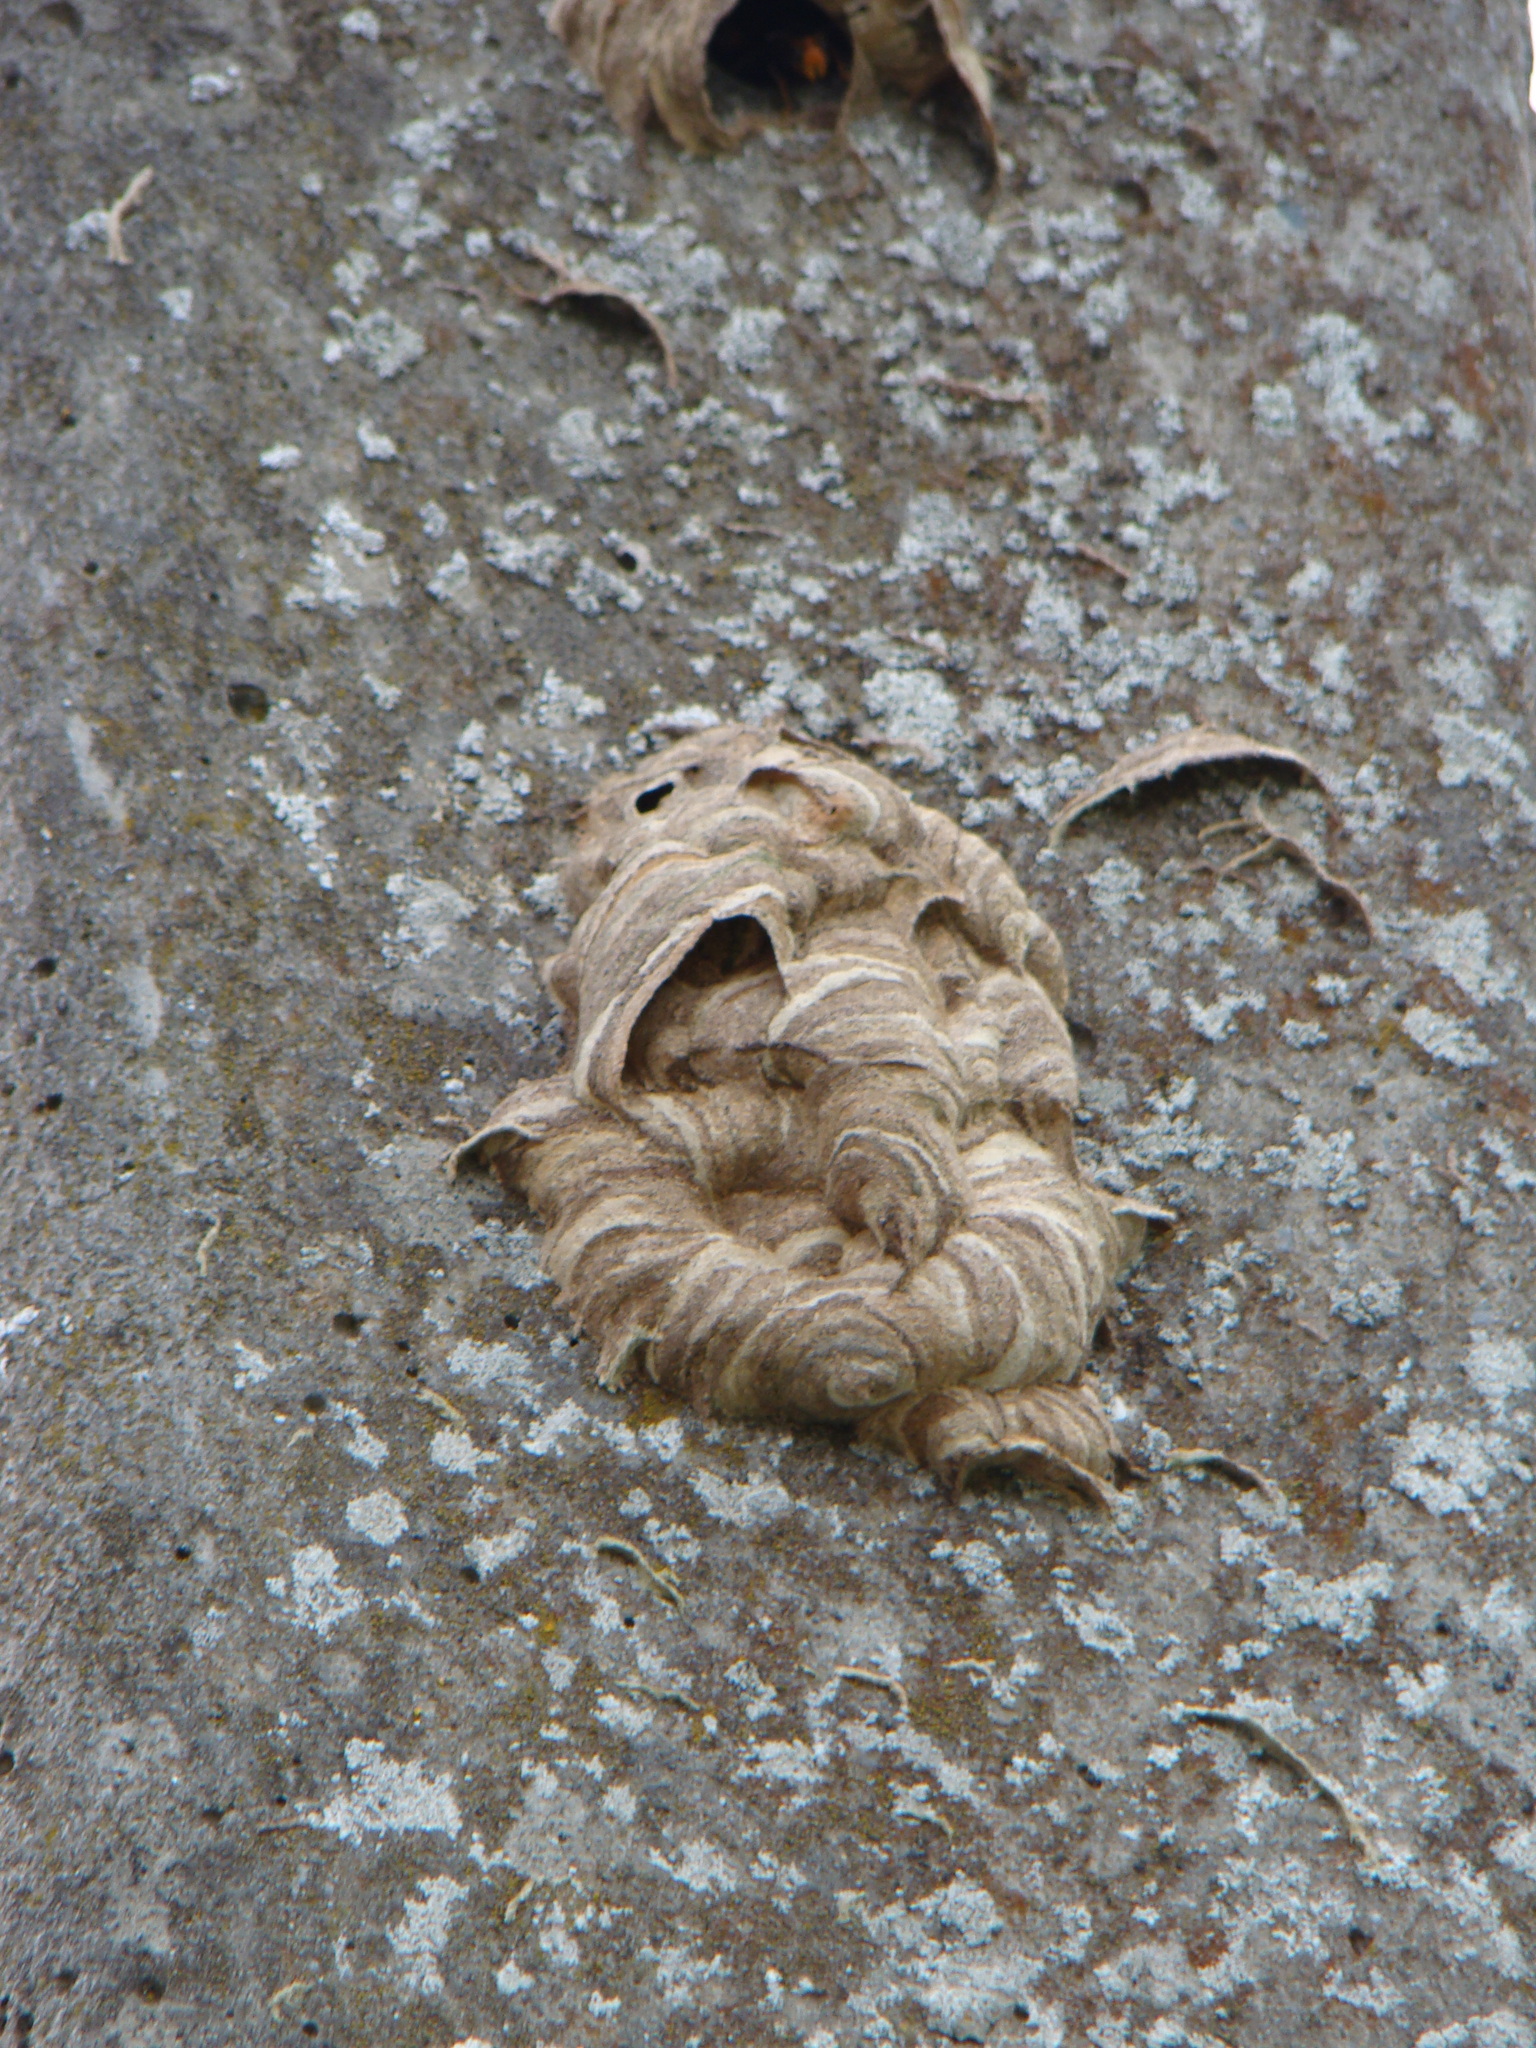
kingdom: Animalia
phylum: Arthropoda
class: Insecta
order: Hymenoptera
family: Vespidae
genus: Vespa
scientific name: Vespa velutina
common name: Asian hornet
